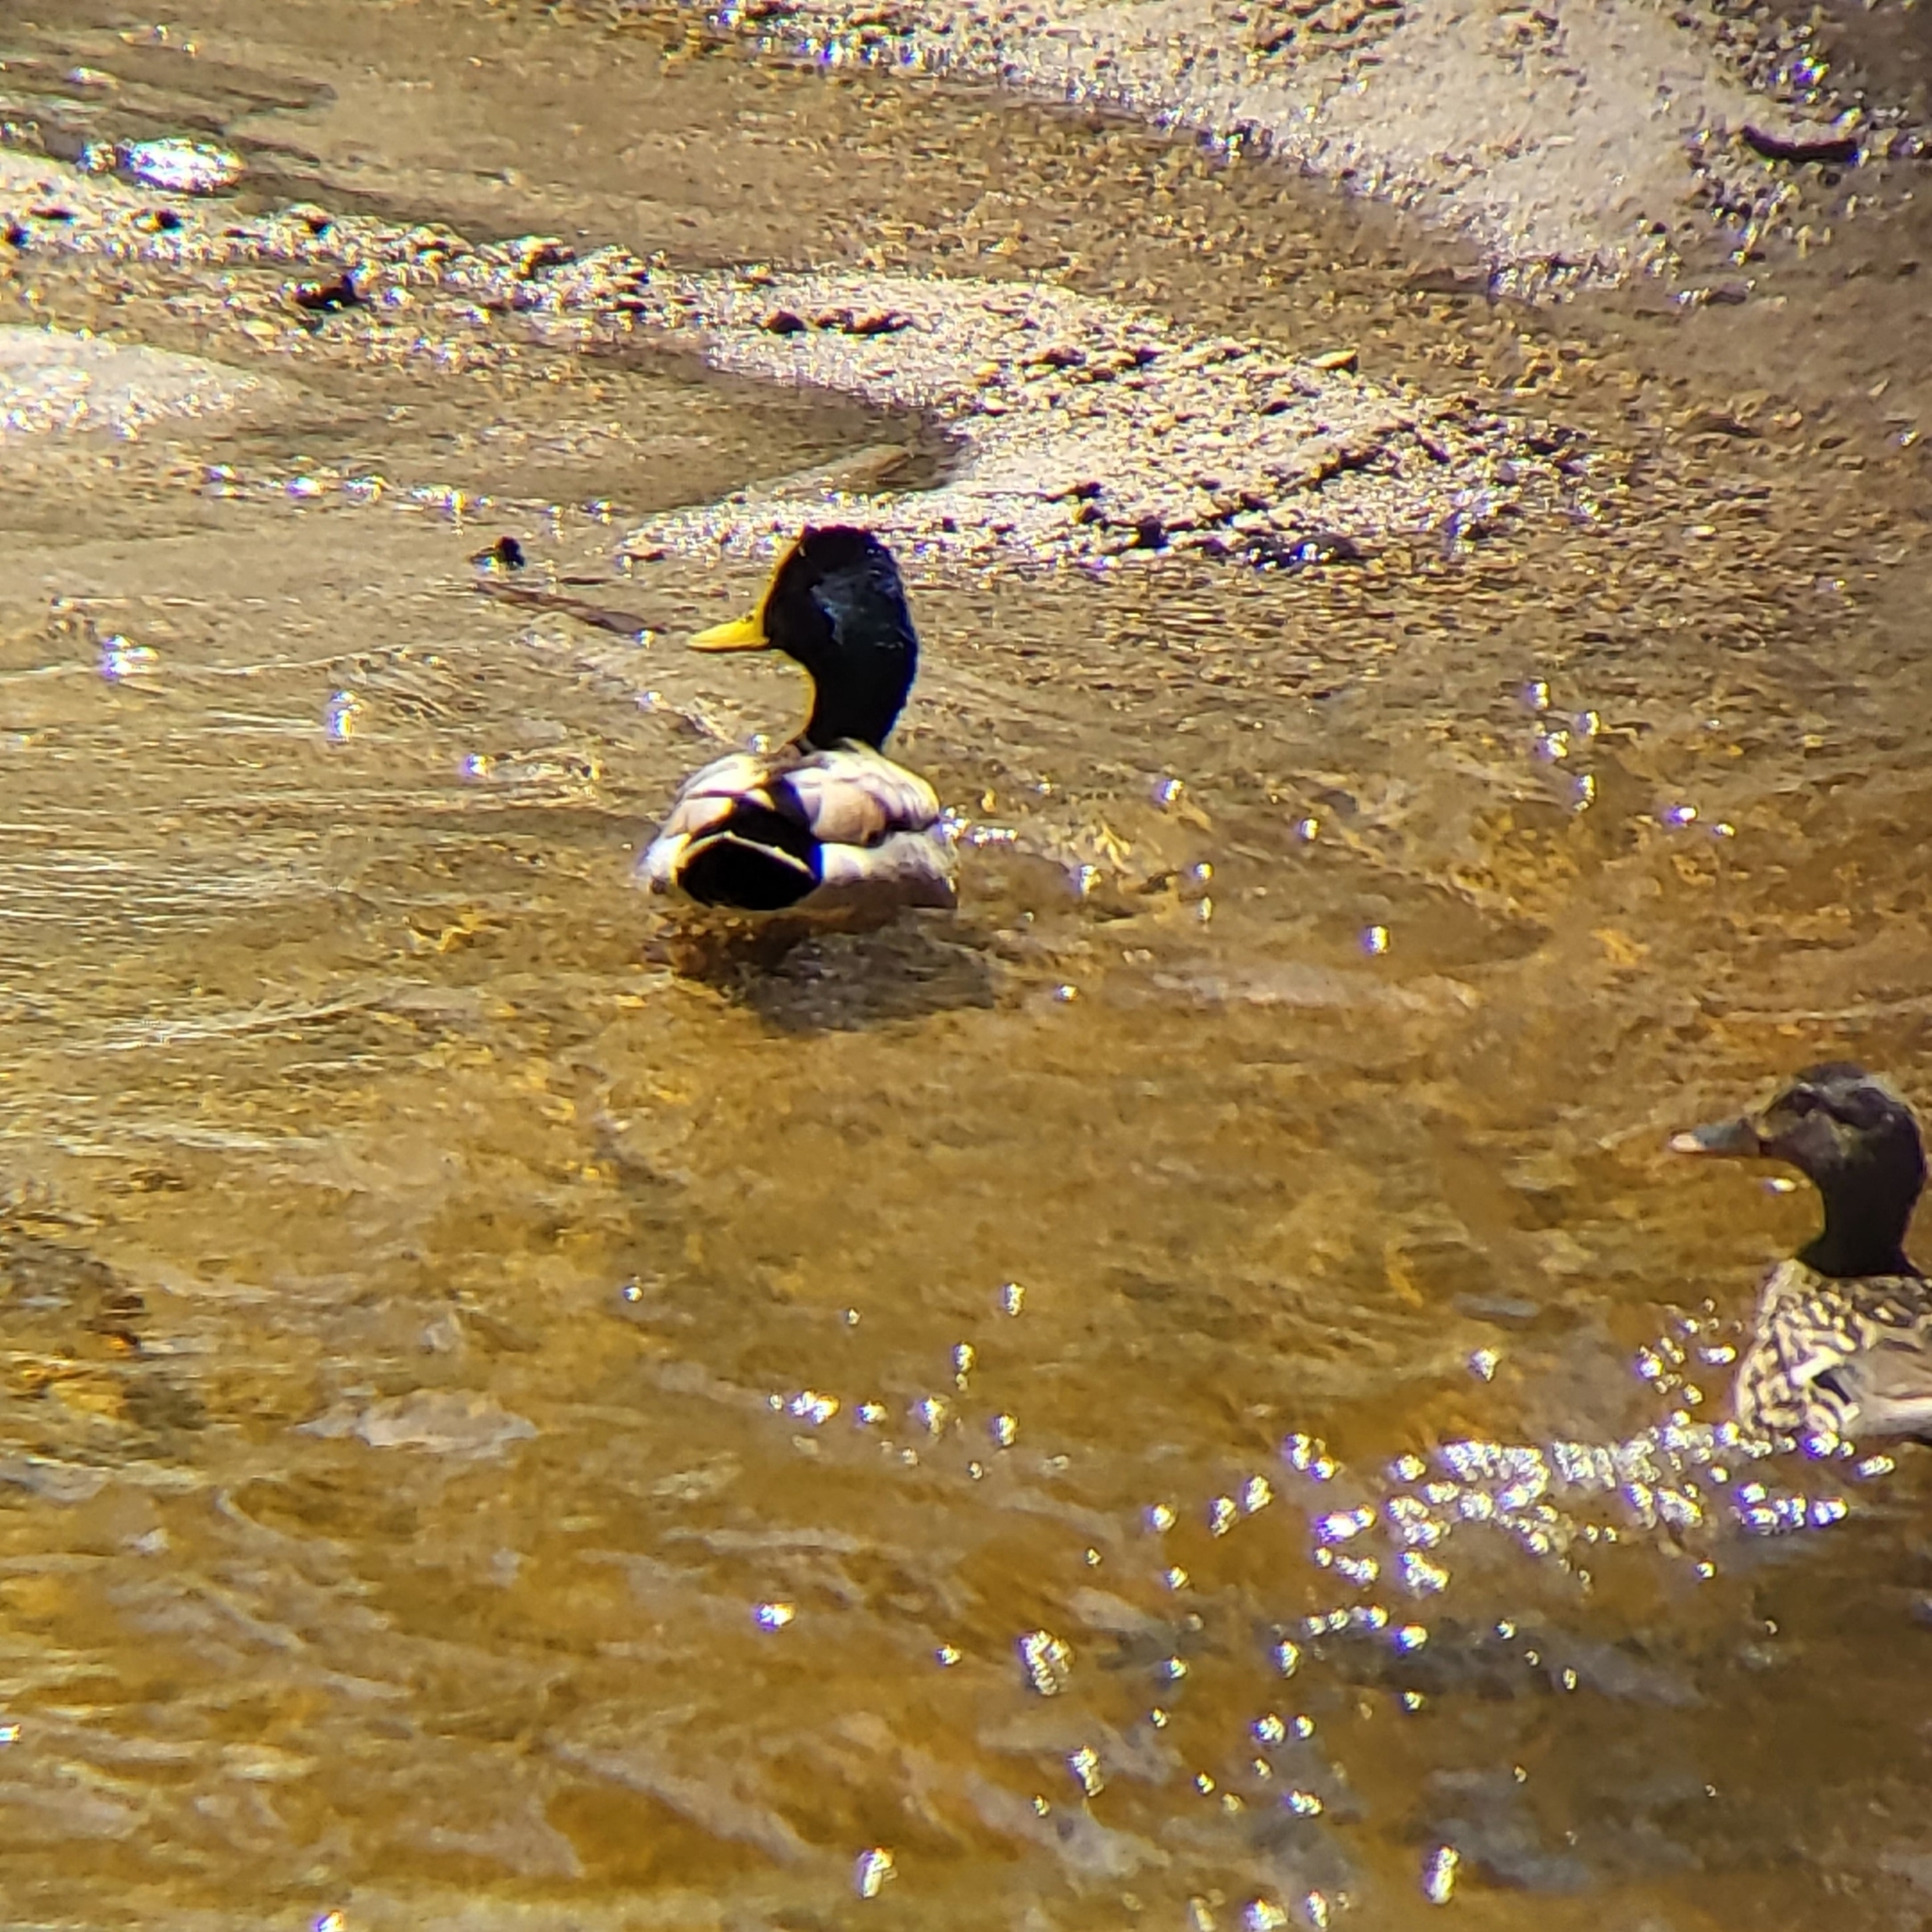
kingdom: Animalia
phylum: Chordata
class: Aves
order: Anseriformes
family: Anatidae
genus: Anas
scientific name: Anas platyrhynchos
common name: Mallard
